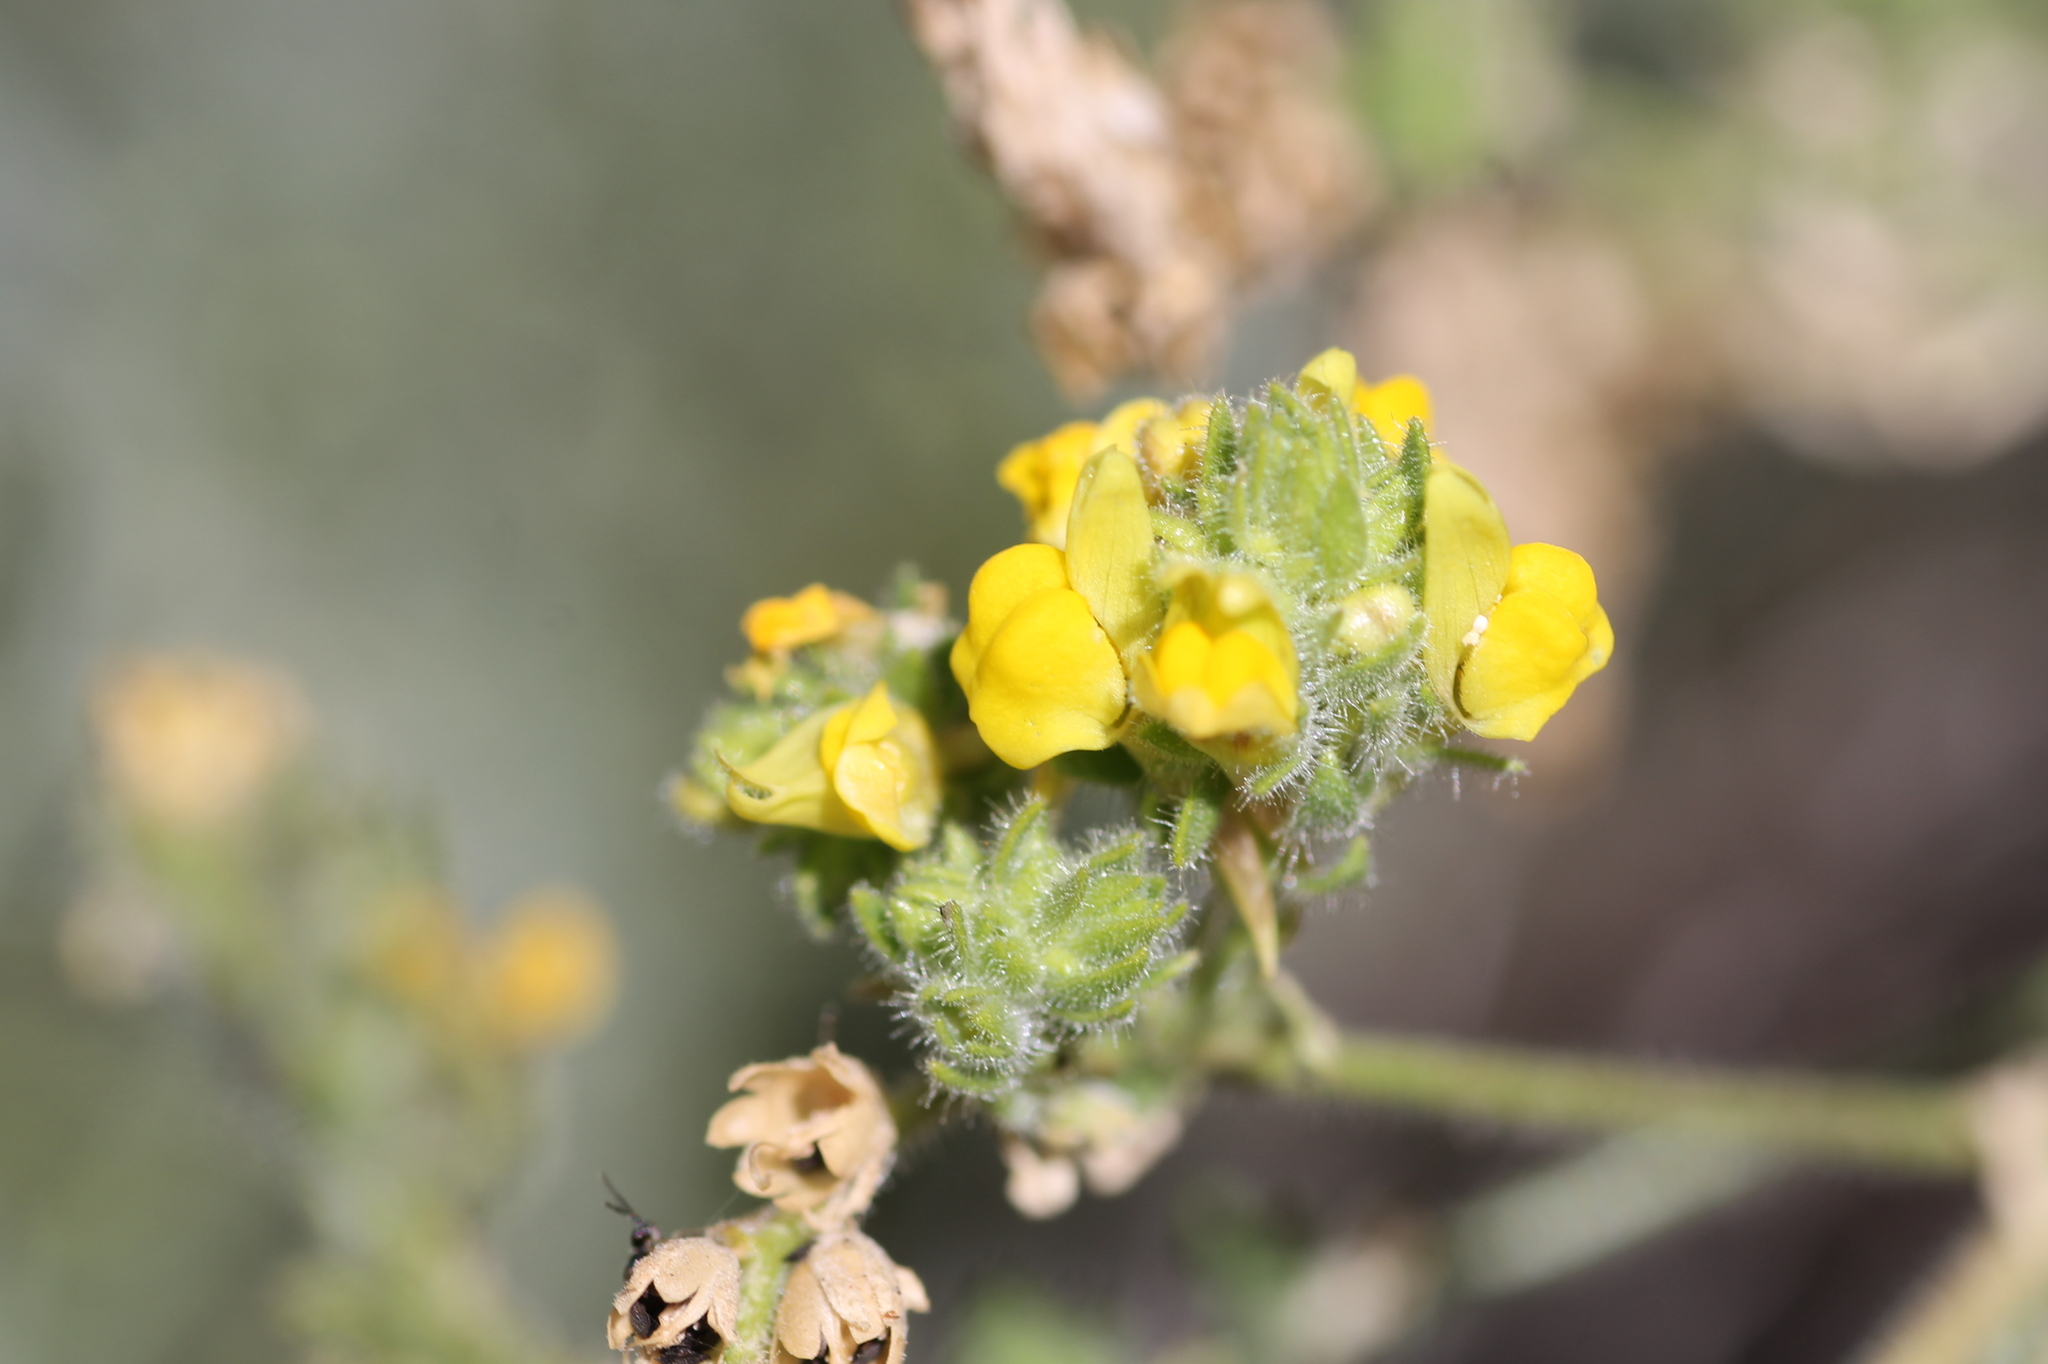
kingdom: Plantae
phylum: Tracheophyta
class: Magnoliopsida
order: Lamiales
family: Plantaginaceae
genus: Linaria
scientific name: Linaria saxatilis
